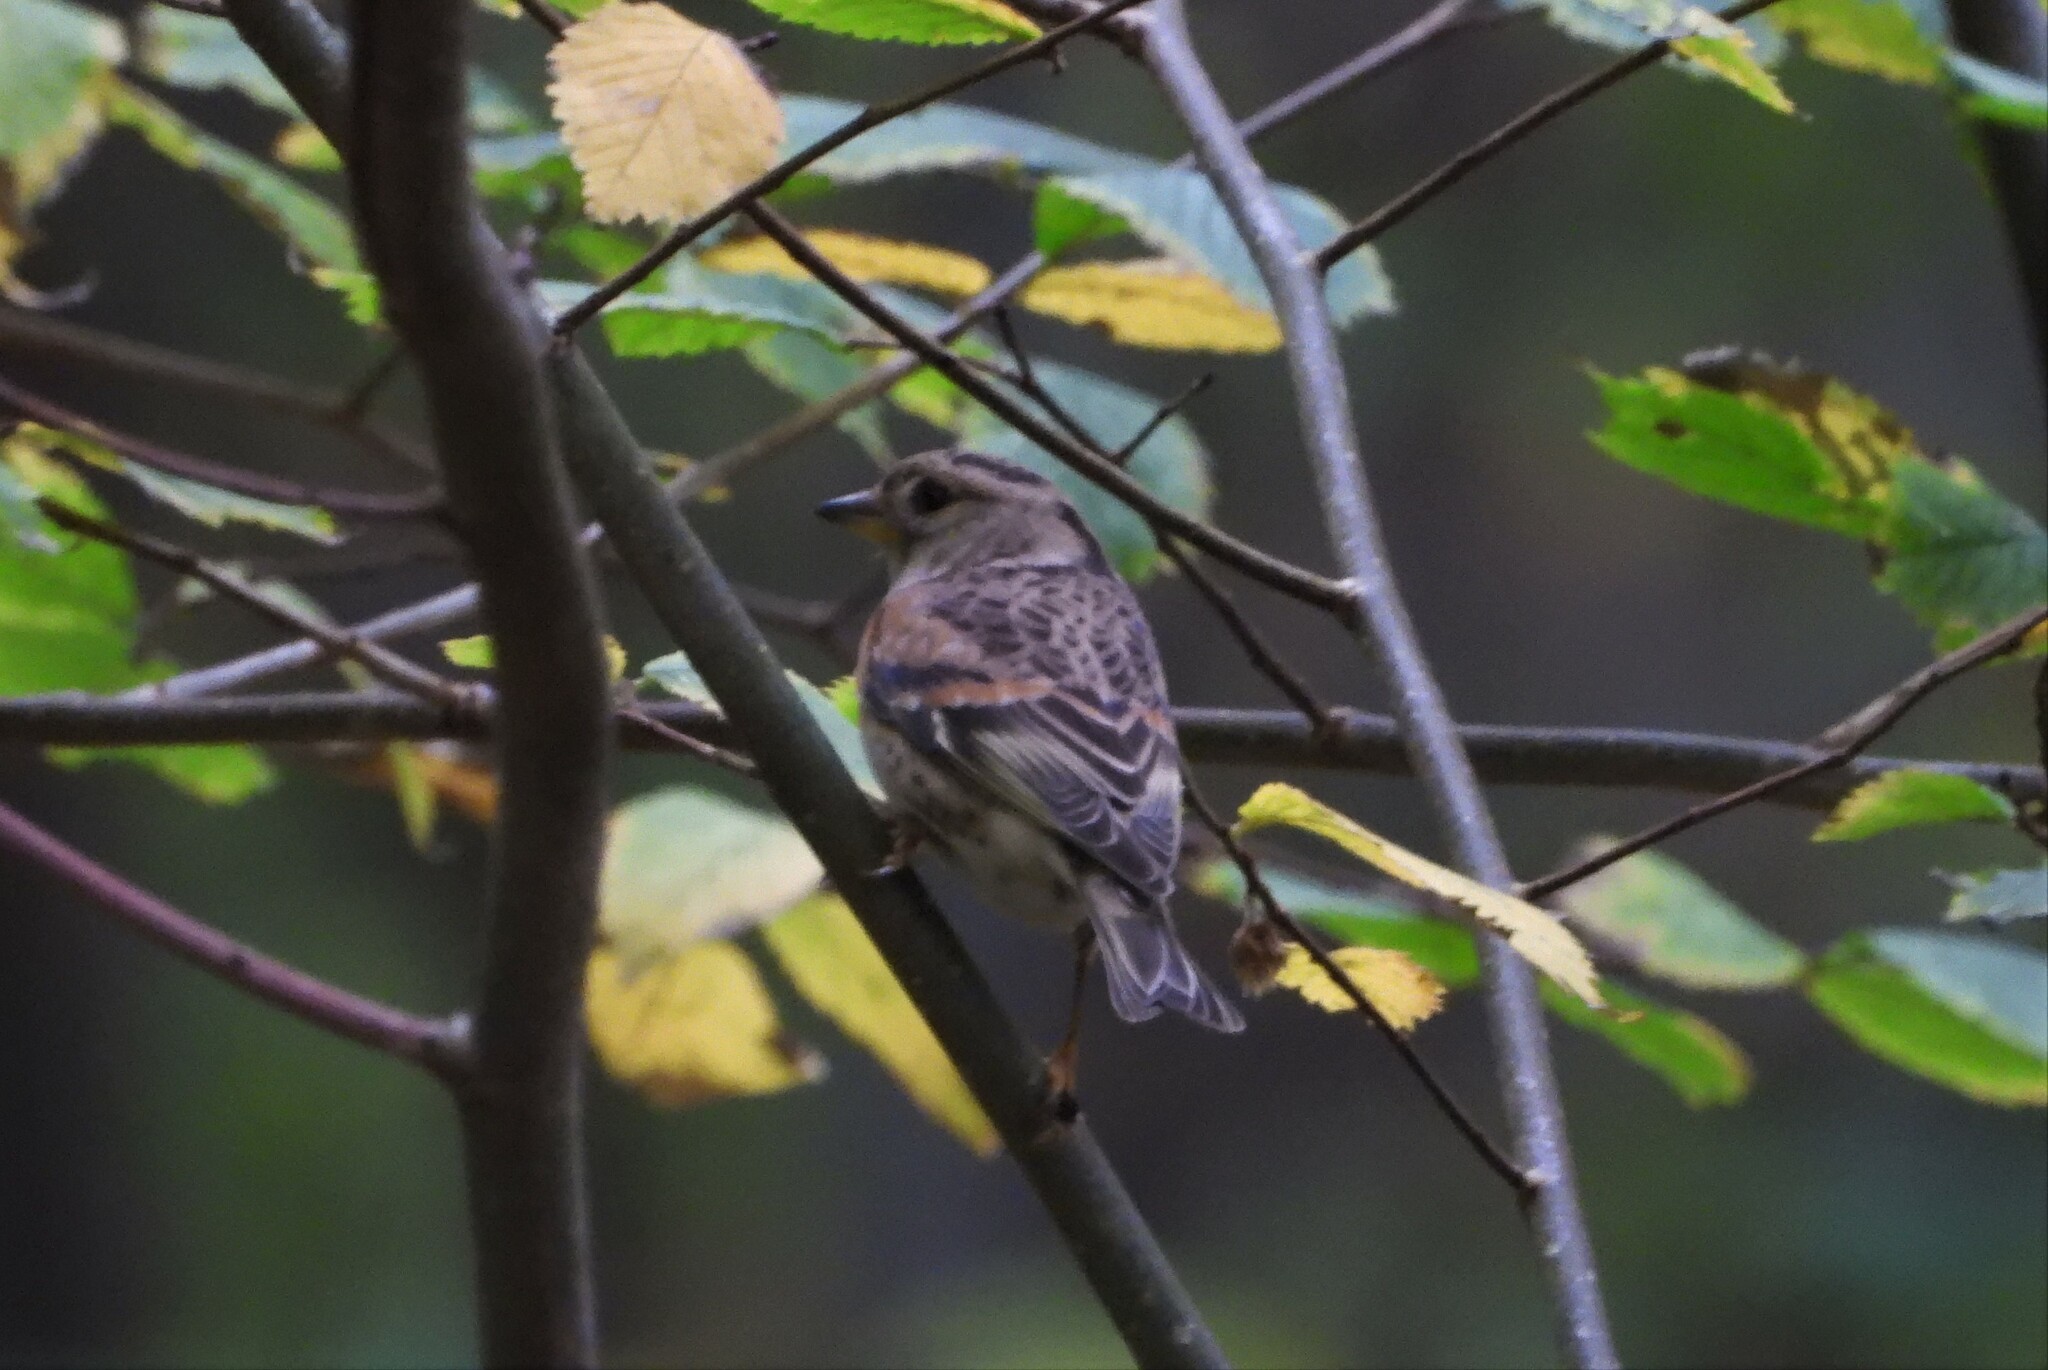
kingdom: Animalia
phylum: Chordata
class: Aves
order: Passeriformes
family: Fringillidae
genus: Fringilla
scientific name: Fringilla montifringilla
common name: Brambling
